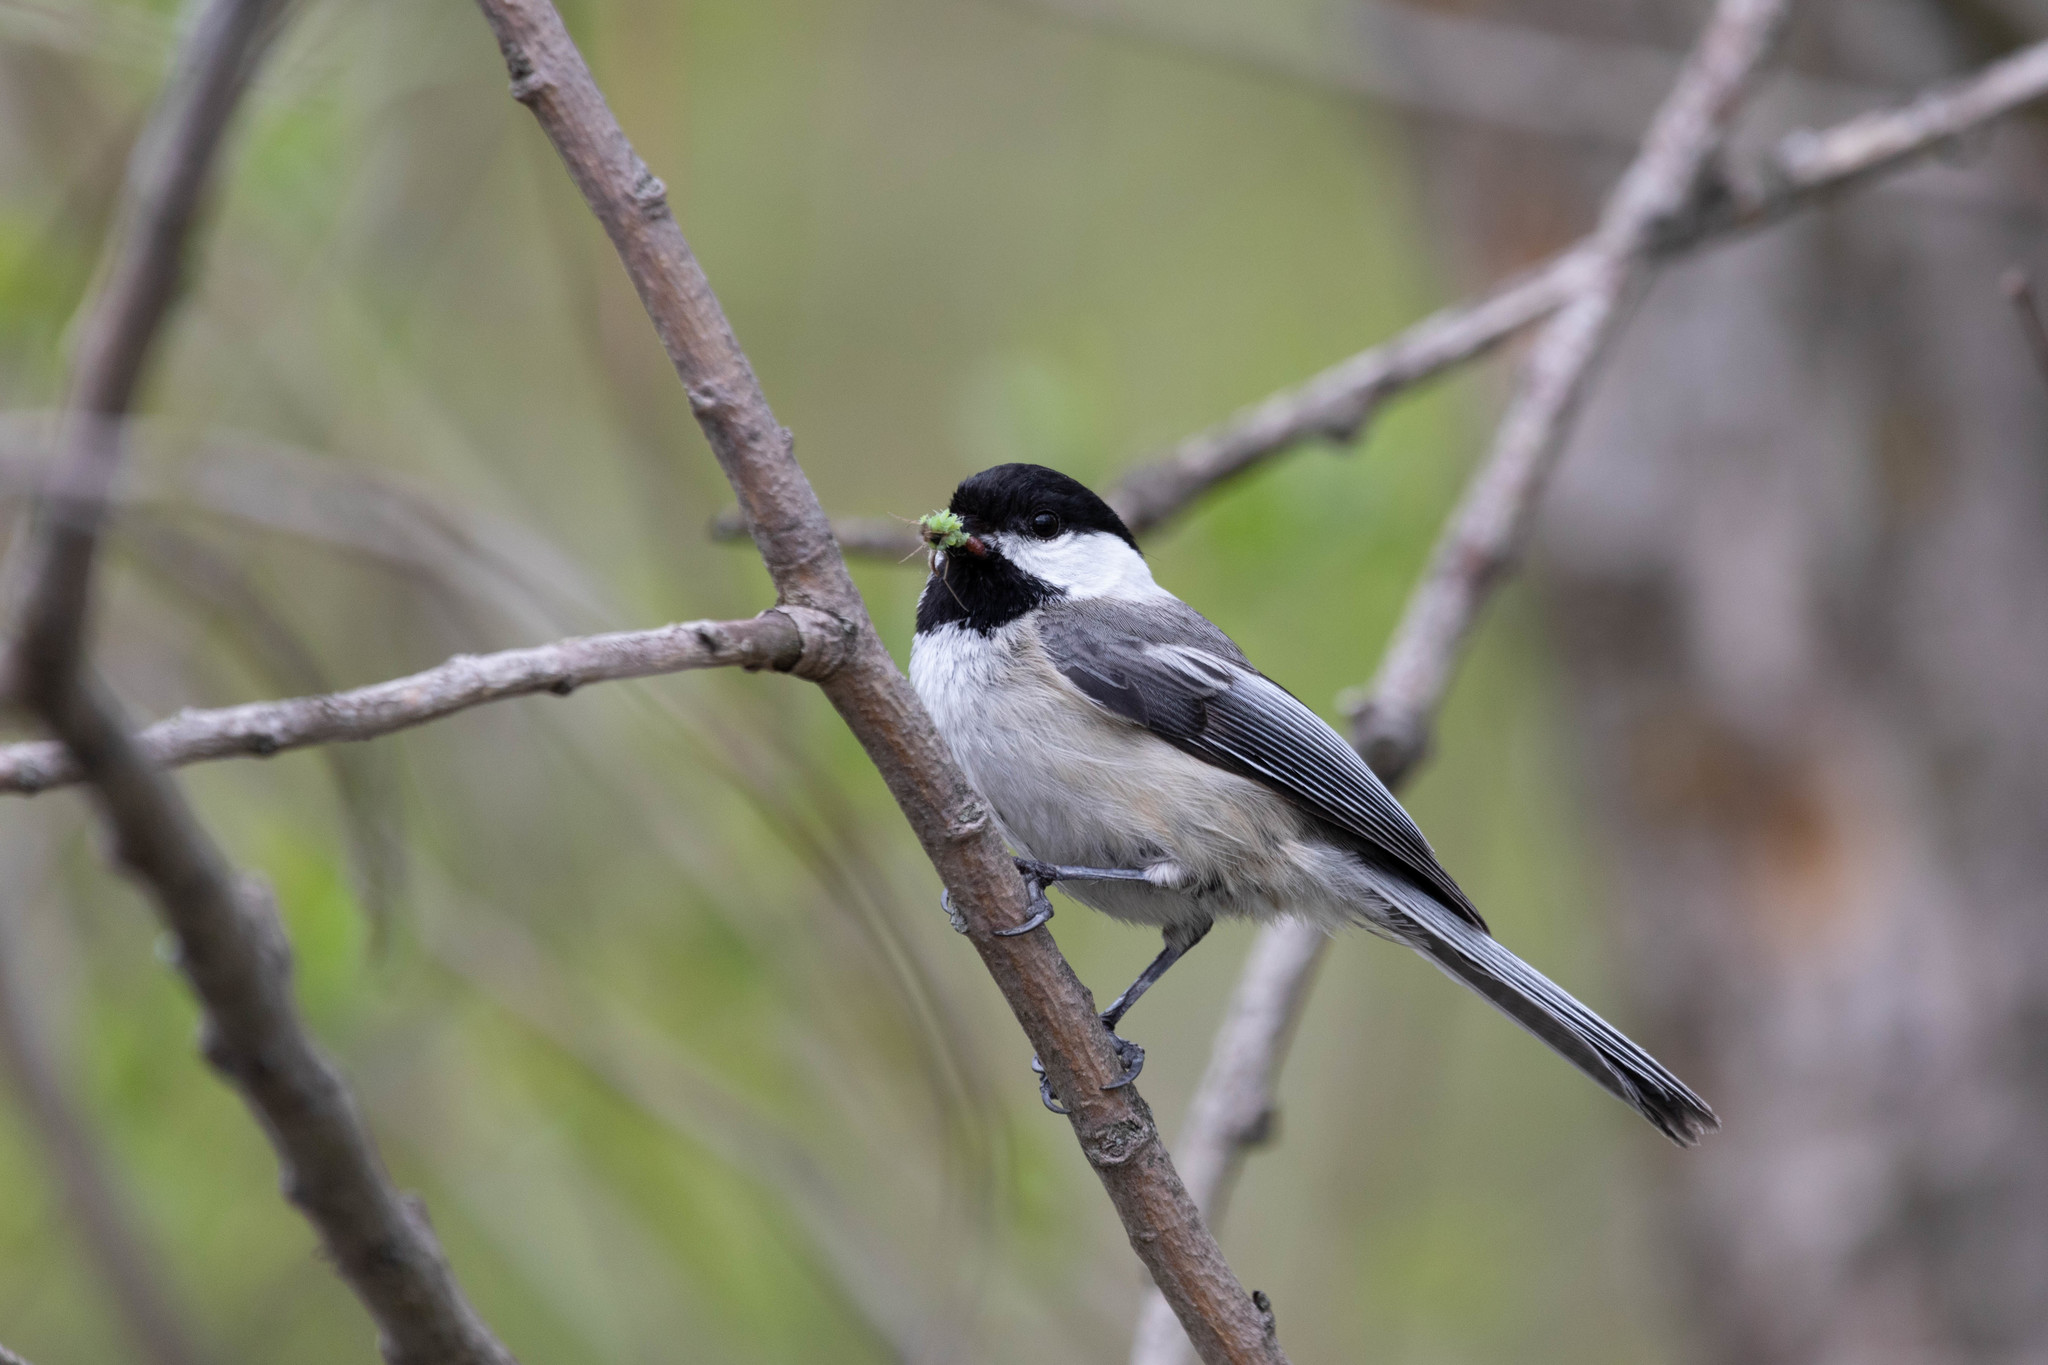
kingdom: Animalia
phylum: Chordata
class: Aves
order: Passeriformes
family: Paridae
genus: Poecile
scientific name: Poecile atricapillus
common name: Black-capped chickadee
